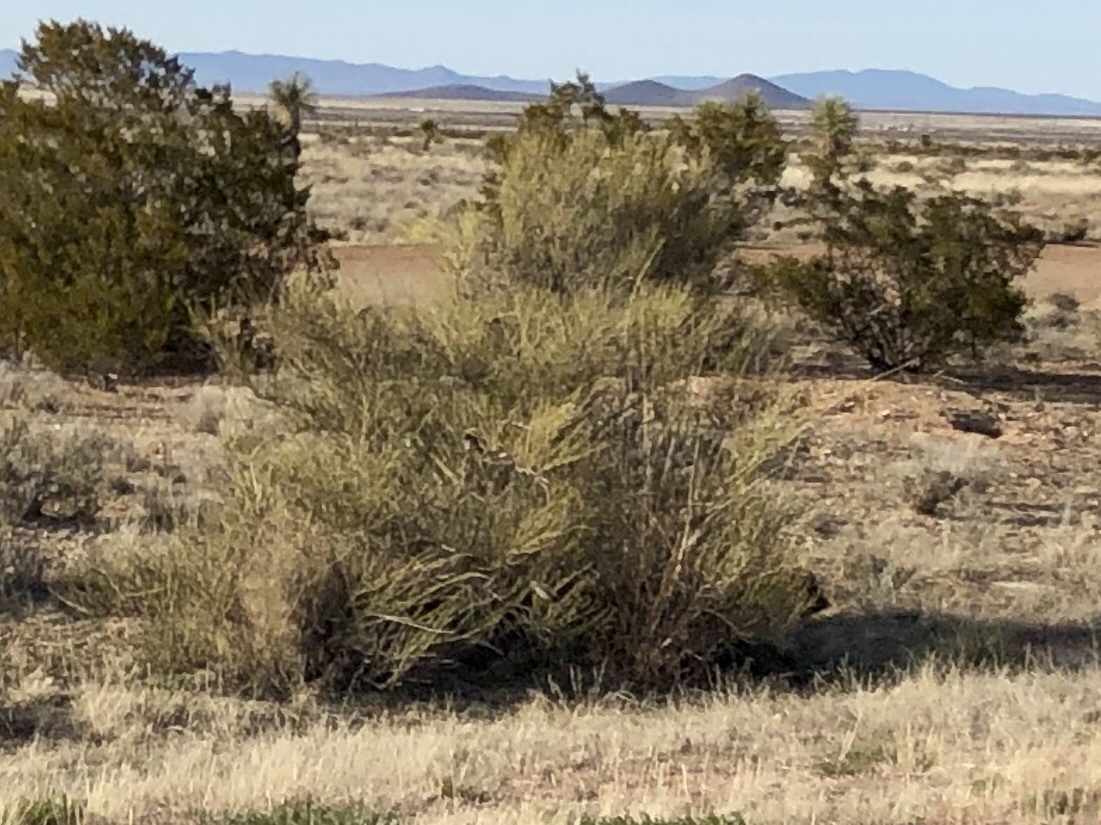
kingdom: Plantae
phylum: Tracheophyta
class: Gnetopsida
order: Ephedrales
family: Ephedraceae
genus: Ephedra
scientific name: Ephedra trifurca
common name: Mexican-tea
